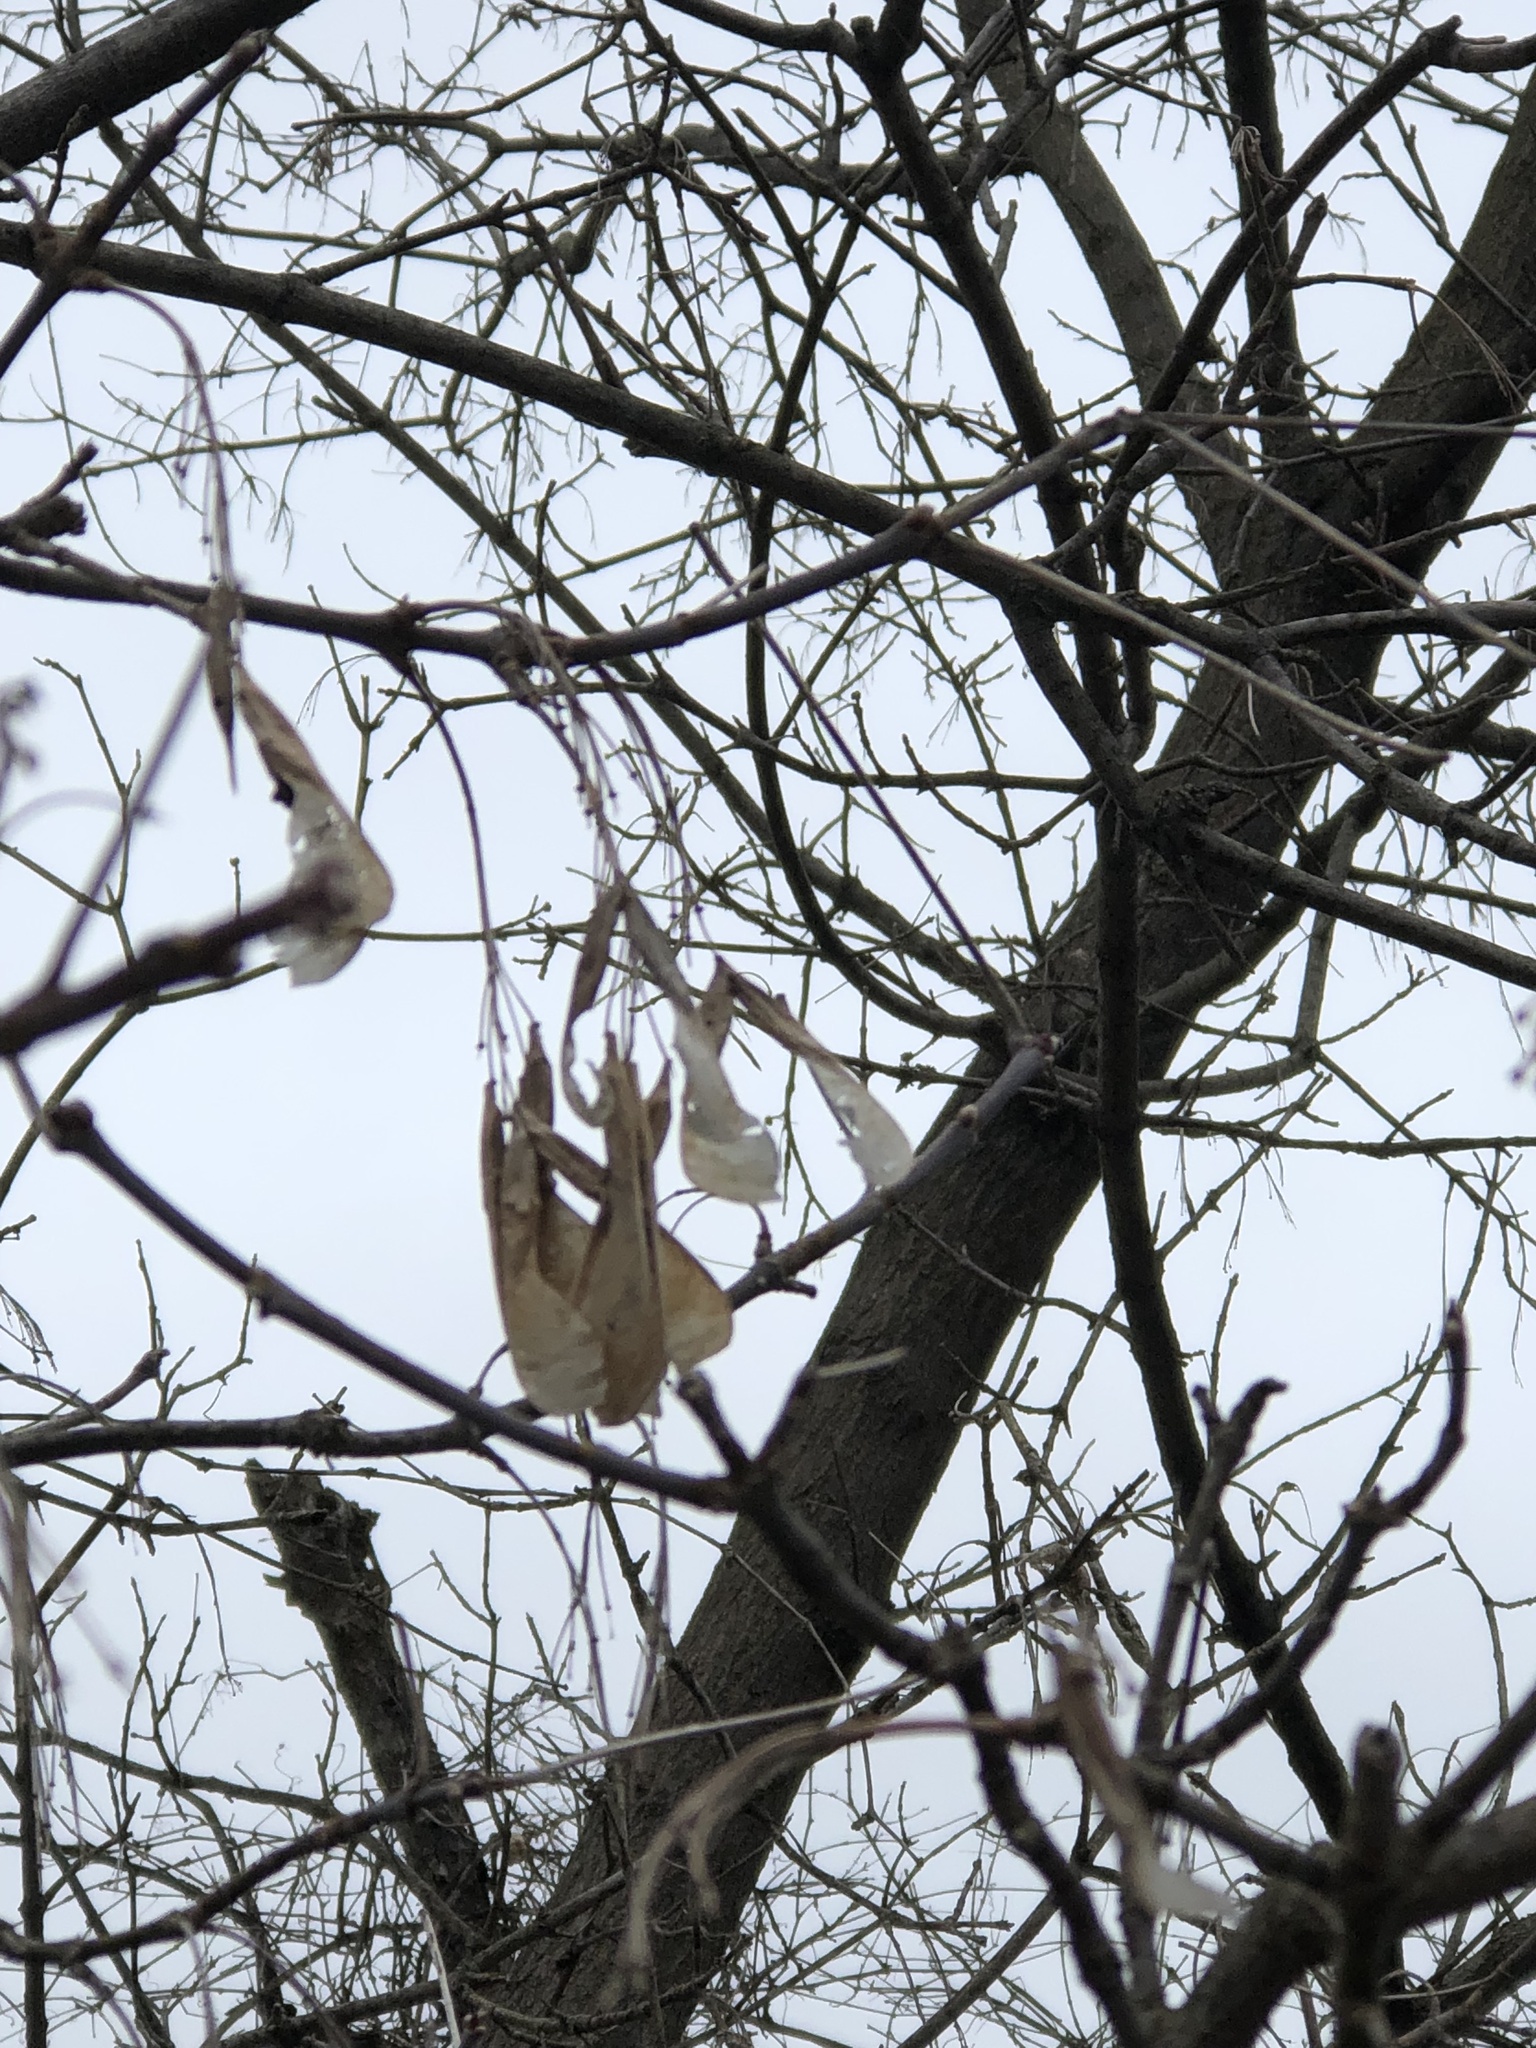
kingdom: Plantae
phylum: Tracheophyta
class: Magnoliopsida
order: Sapindales
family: Sapindaceae
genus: Acer
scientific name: Acer negundo
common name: Ashleaf maple
